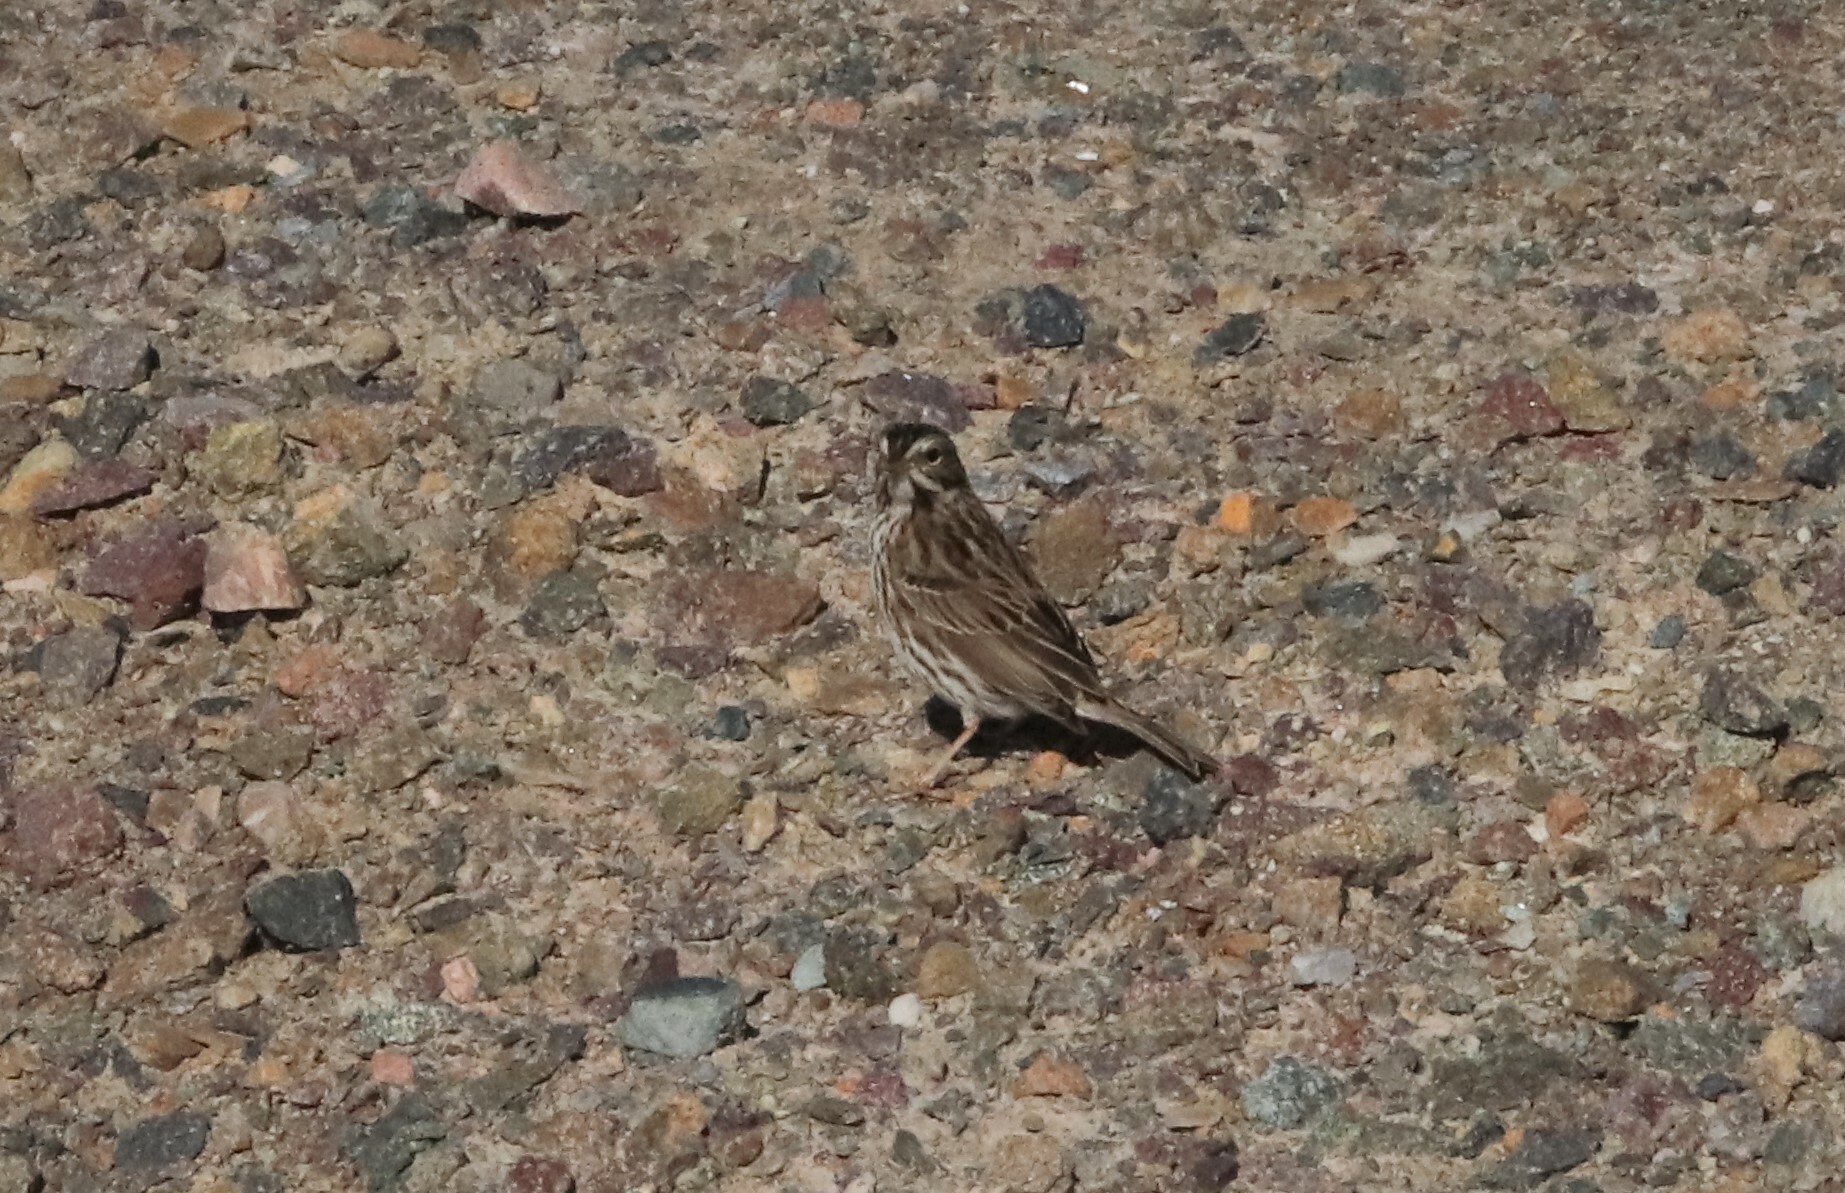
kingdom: Animalia
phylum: Chordata
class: Aves
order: Passeriformes
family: Passerellidae
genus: Passerculus
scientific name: Passerculus sandwichensis
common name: Savannah sparrow
